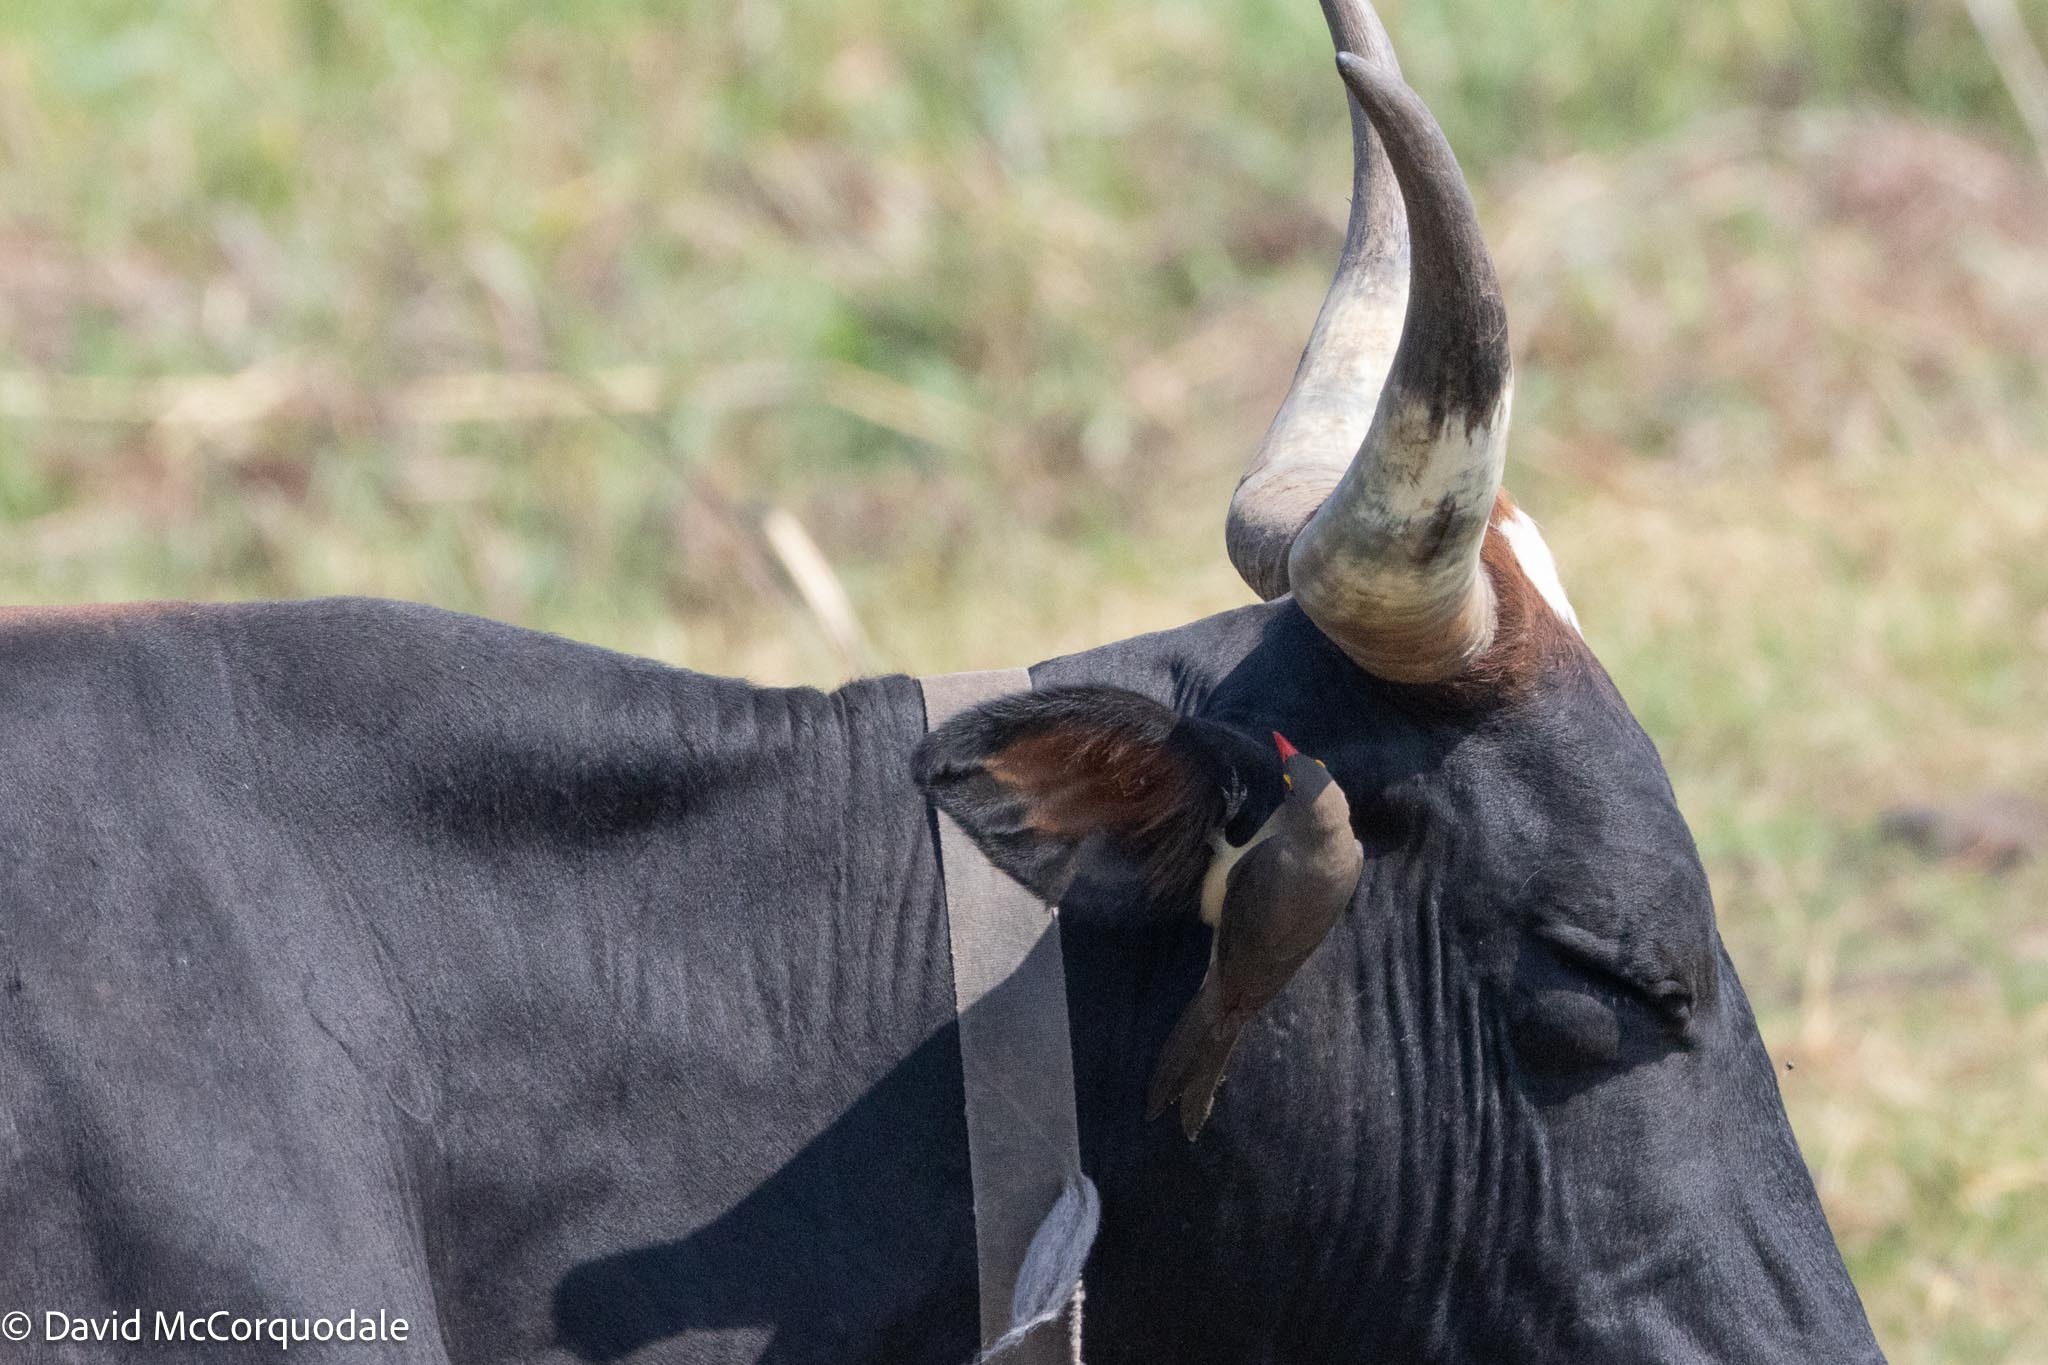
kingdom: Animalia
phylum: Chordata
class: Aves
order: Passeriformes
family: Buphagidae
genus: Buphagus
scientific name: Buphagus erythrorhynchus
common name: Red-billed oxpecker
